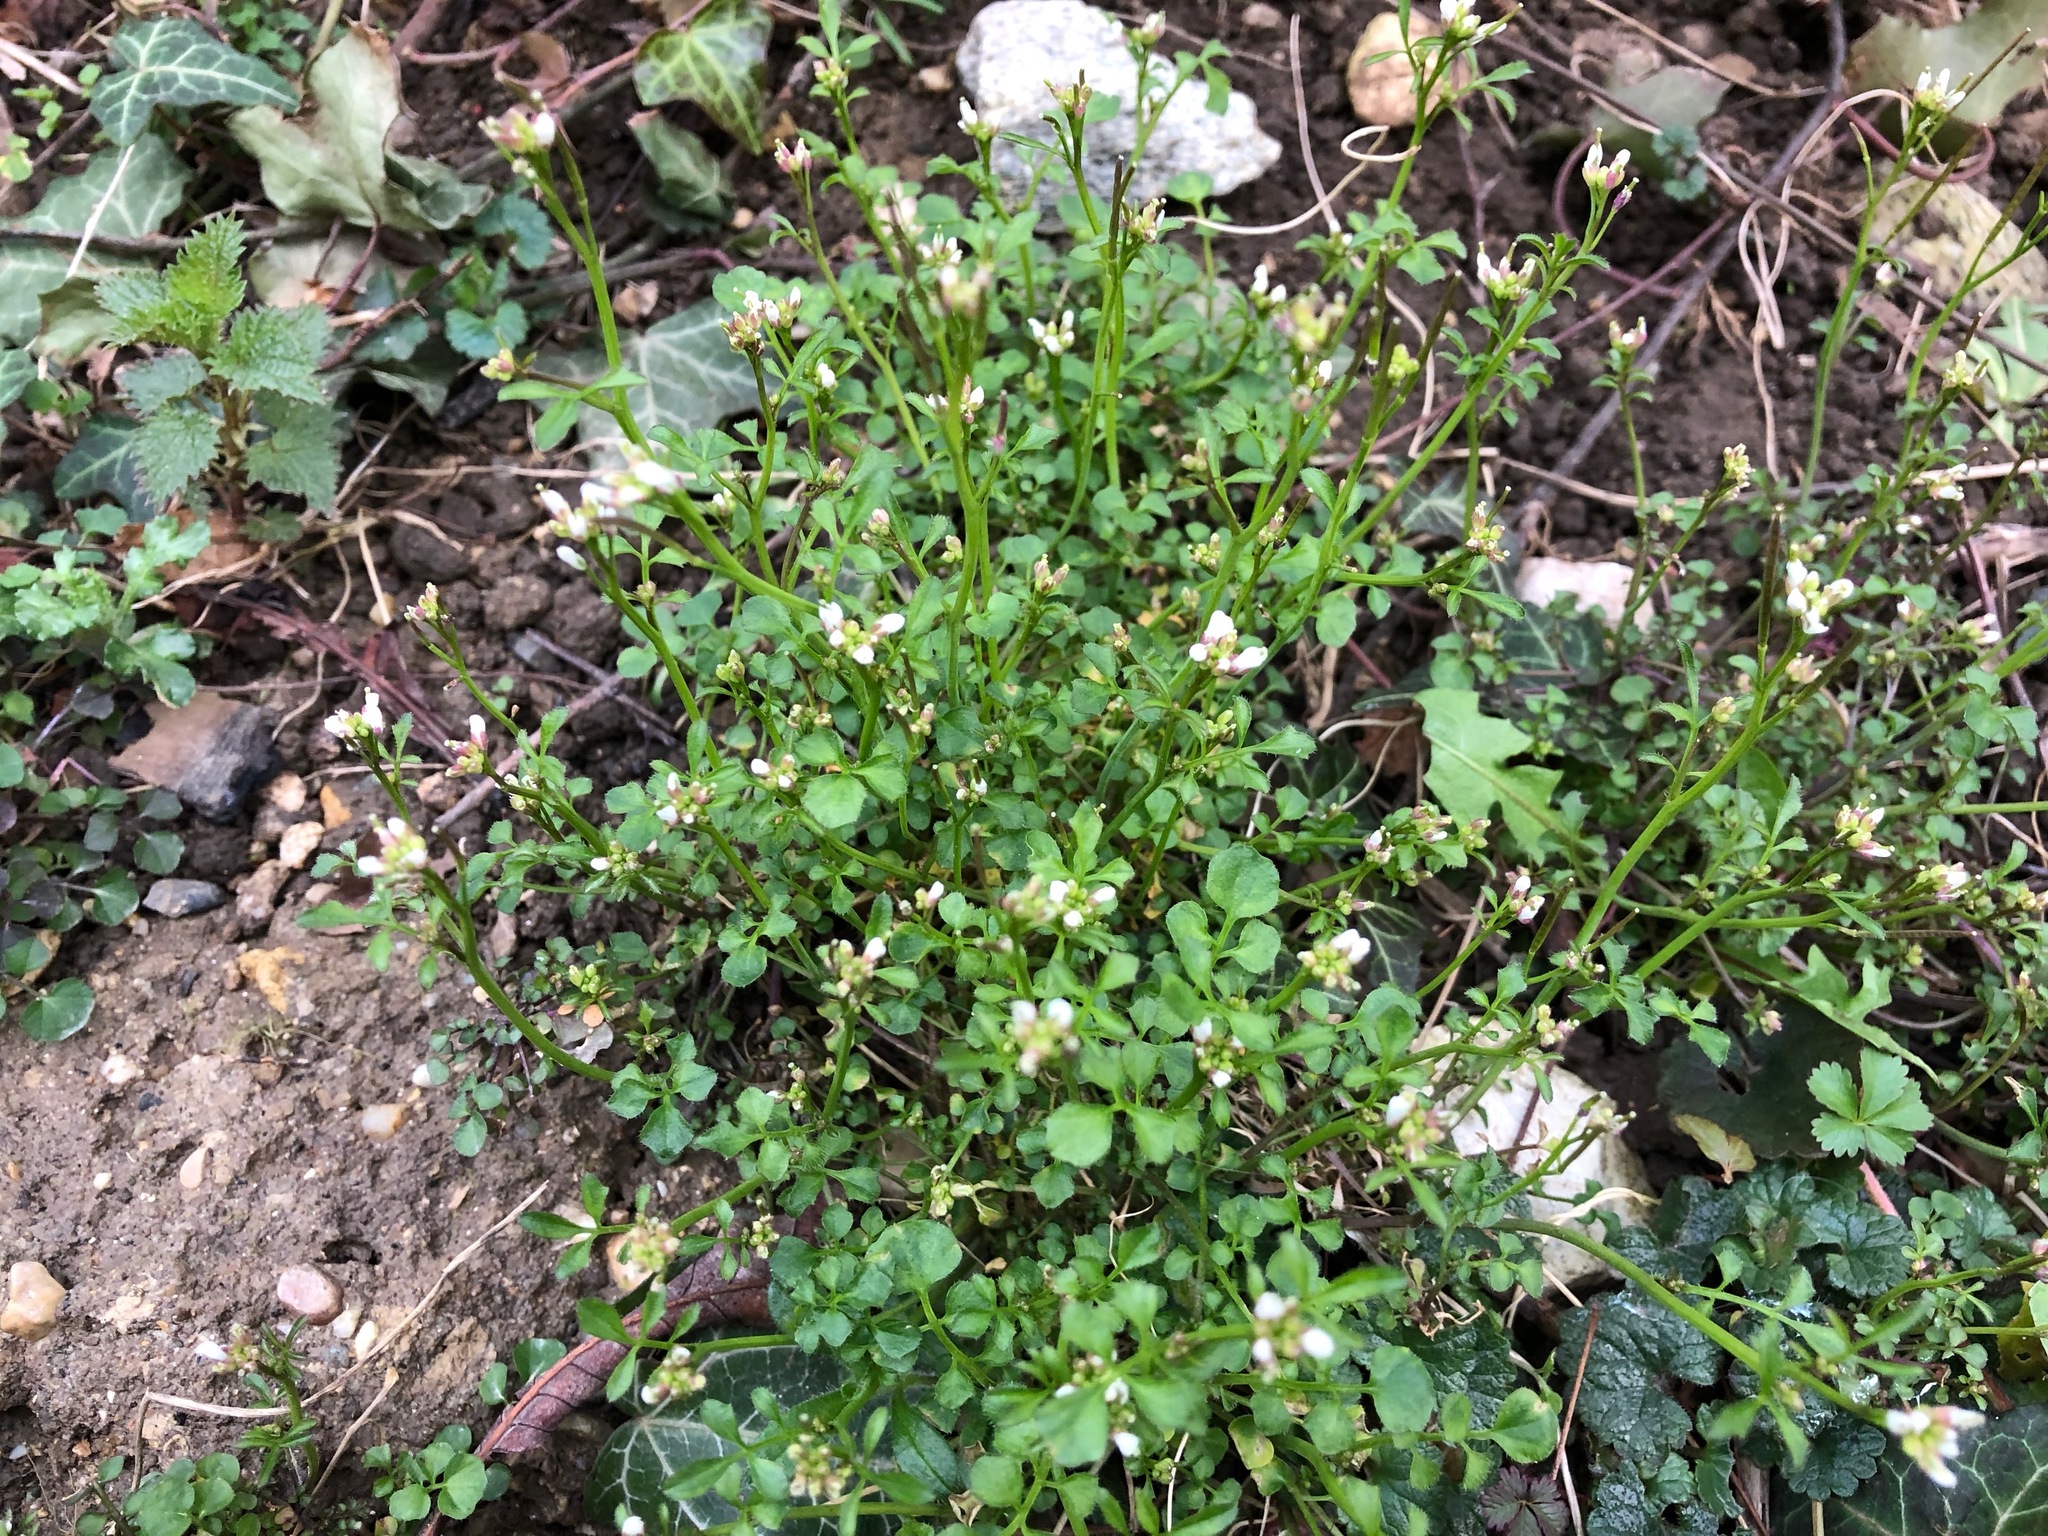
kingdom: Plantae
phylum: Tracheophyta
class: Magnoliopsida
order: Brassicales
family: Brassicaceae
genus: Cardamine
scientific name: Cardamine hirsuta
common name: Hairy bittercress
